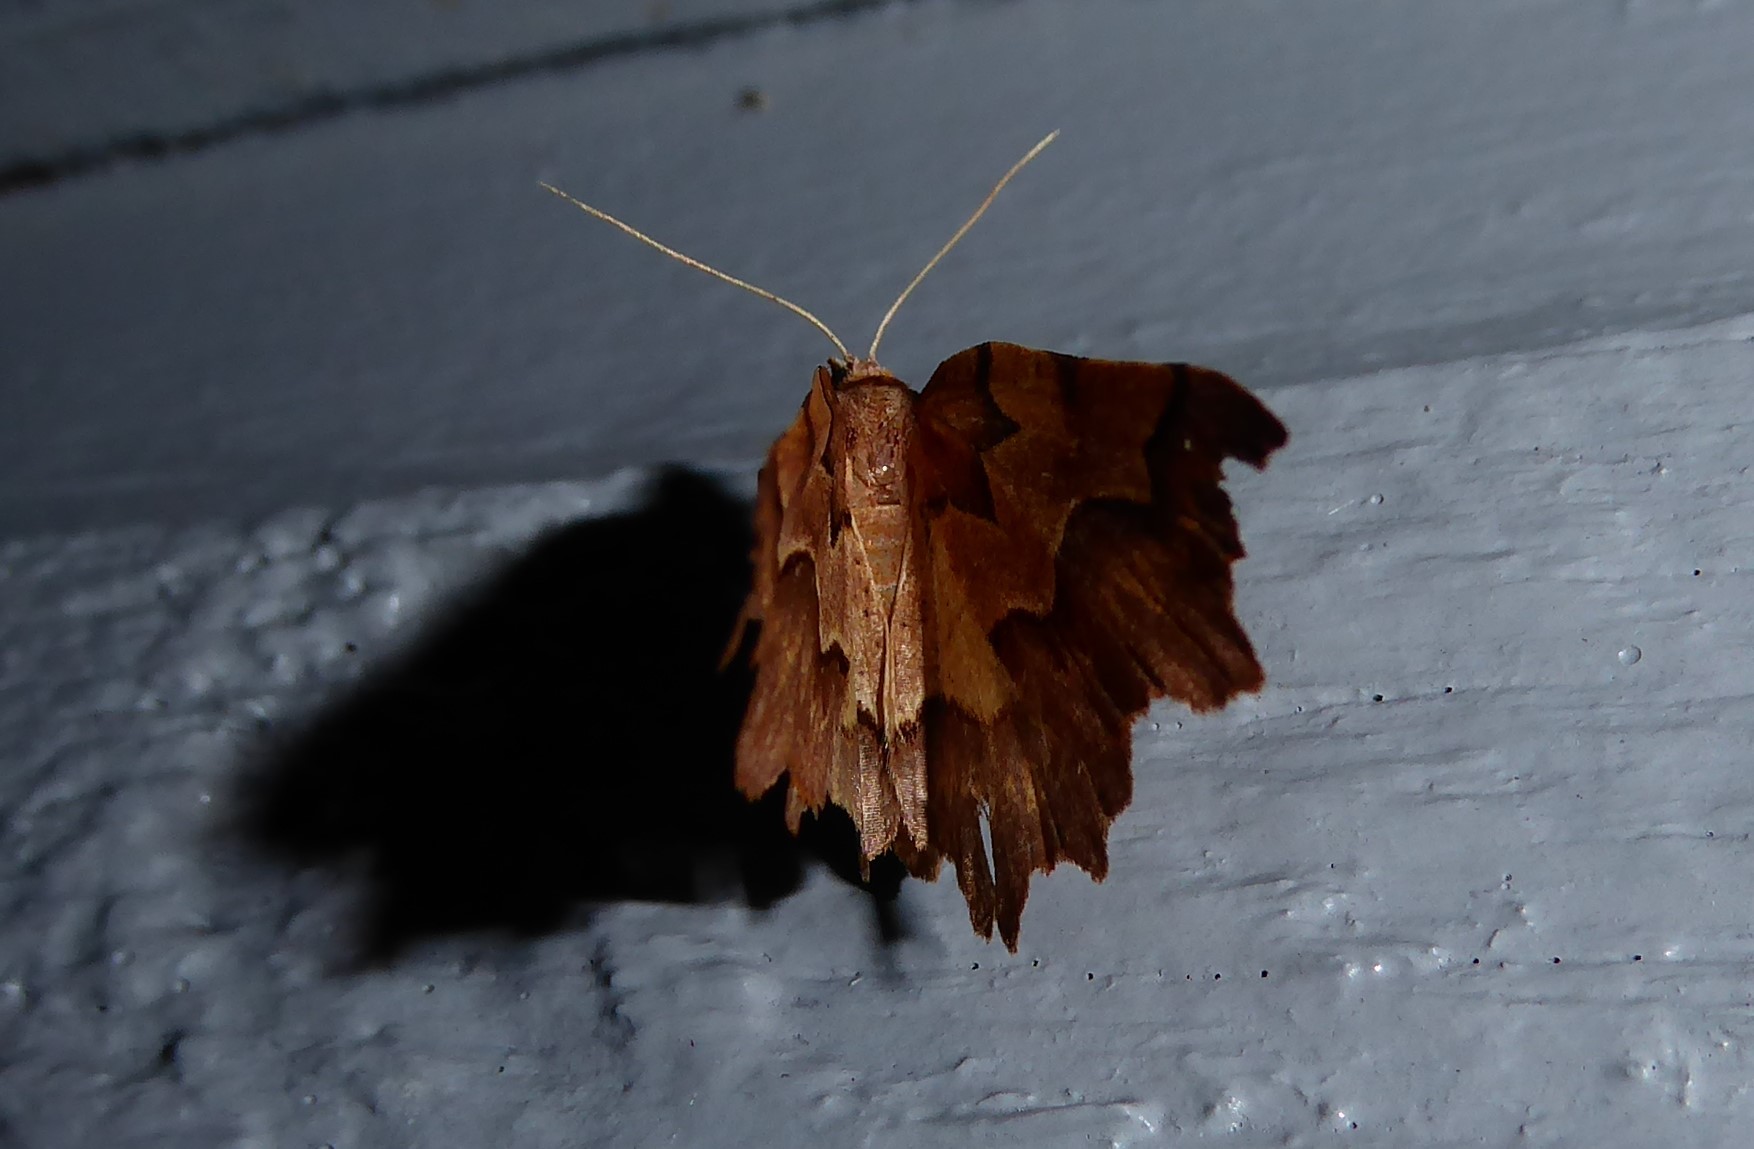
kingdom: Animalia
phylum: Arthropoda
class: Insecta
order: Lepidoptera
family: Geometridae
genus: Ischalis
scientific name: Ischalis fortinata
